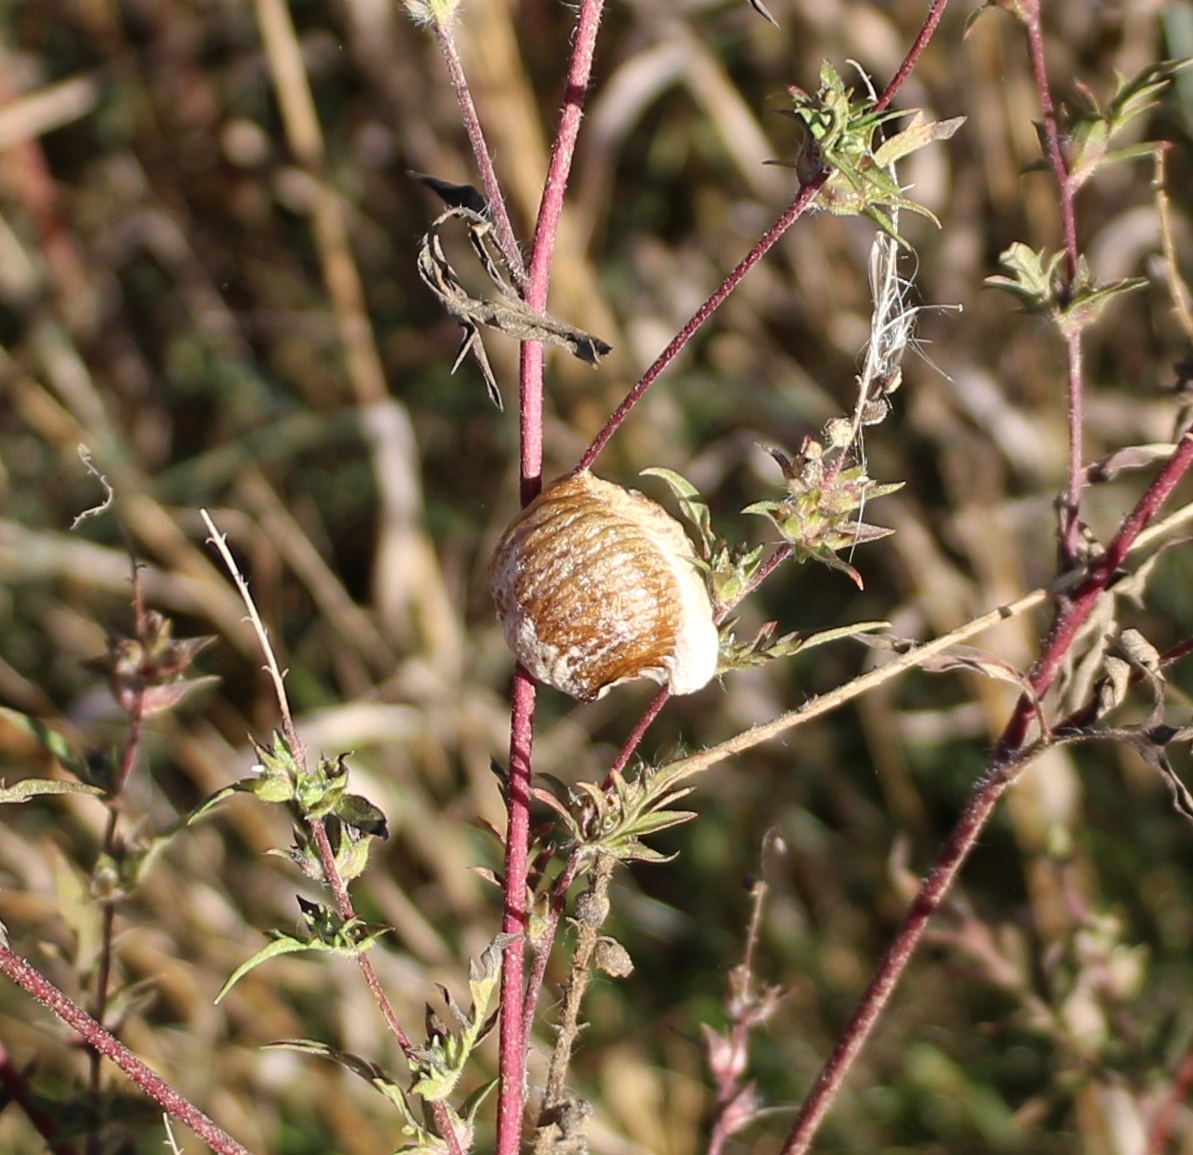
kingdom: Animalia
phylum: Arthropoda
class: Insecta
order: Mantodea
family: Mantidae
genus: Hierodula
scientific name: Hierodula transcaucasica
